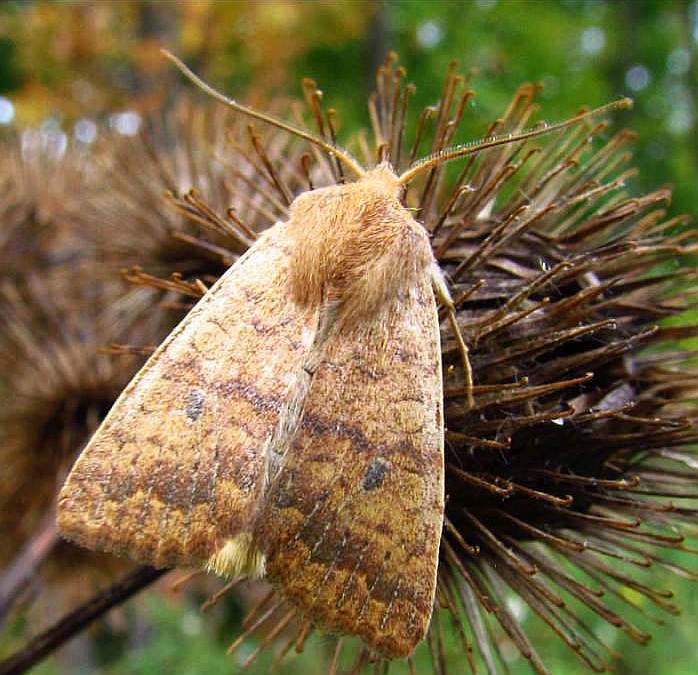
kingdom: Animalia
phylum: Arthropoda
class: Insecta
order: Lepidoptera
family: Noctuidae
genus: Agrochola
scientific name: Agrochola bicolorago
